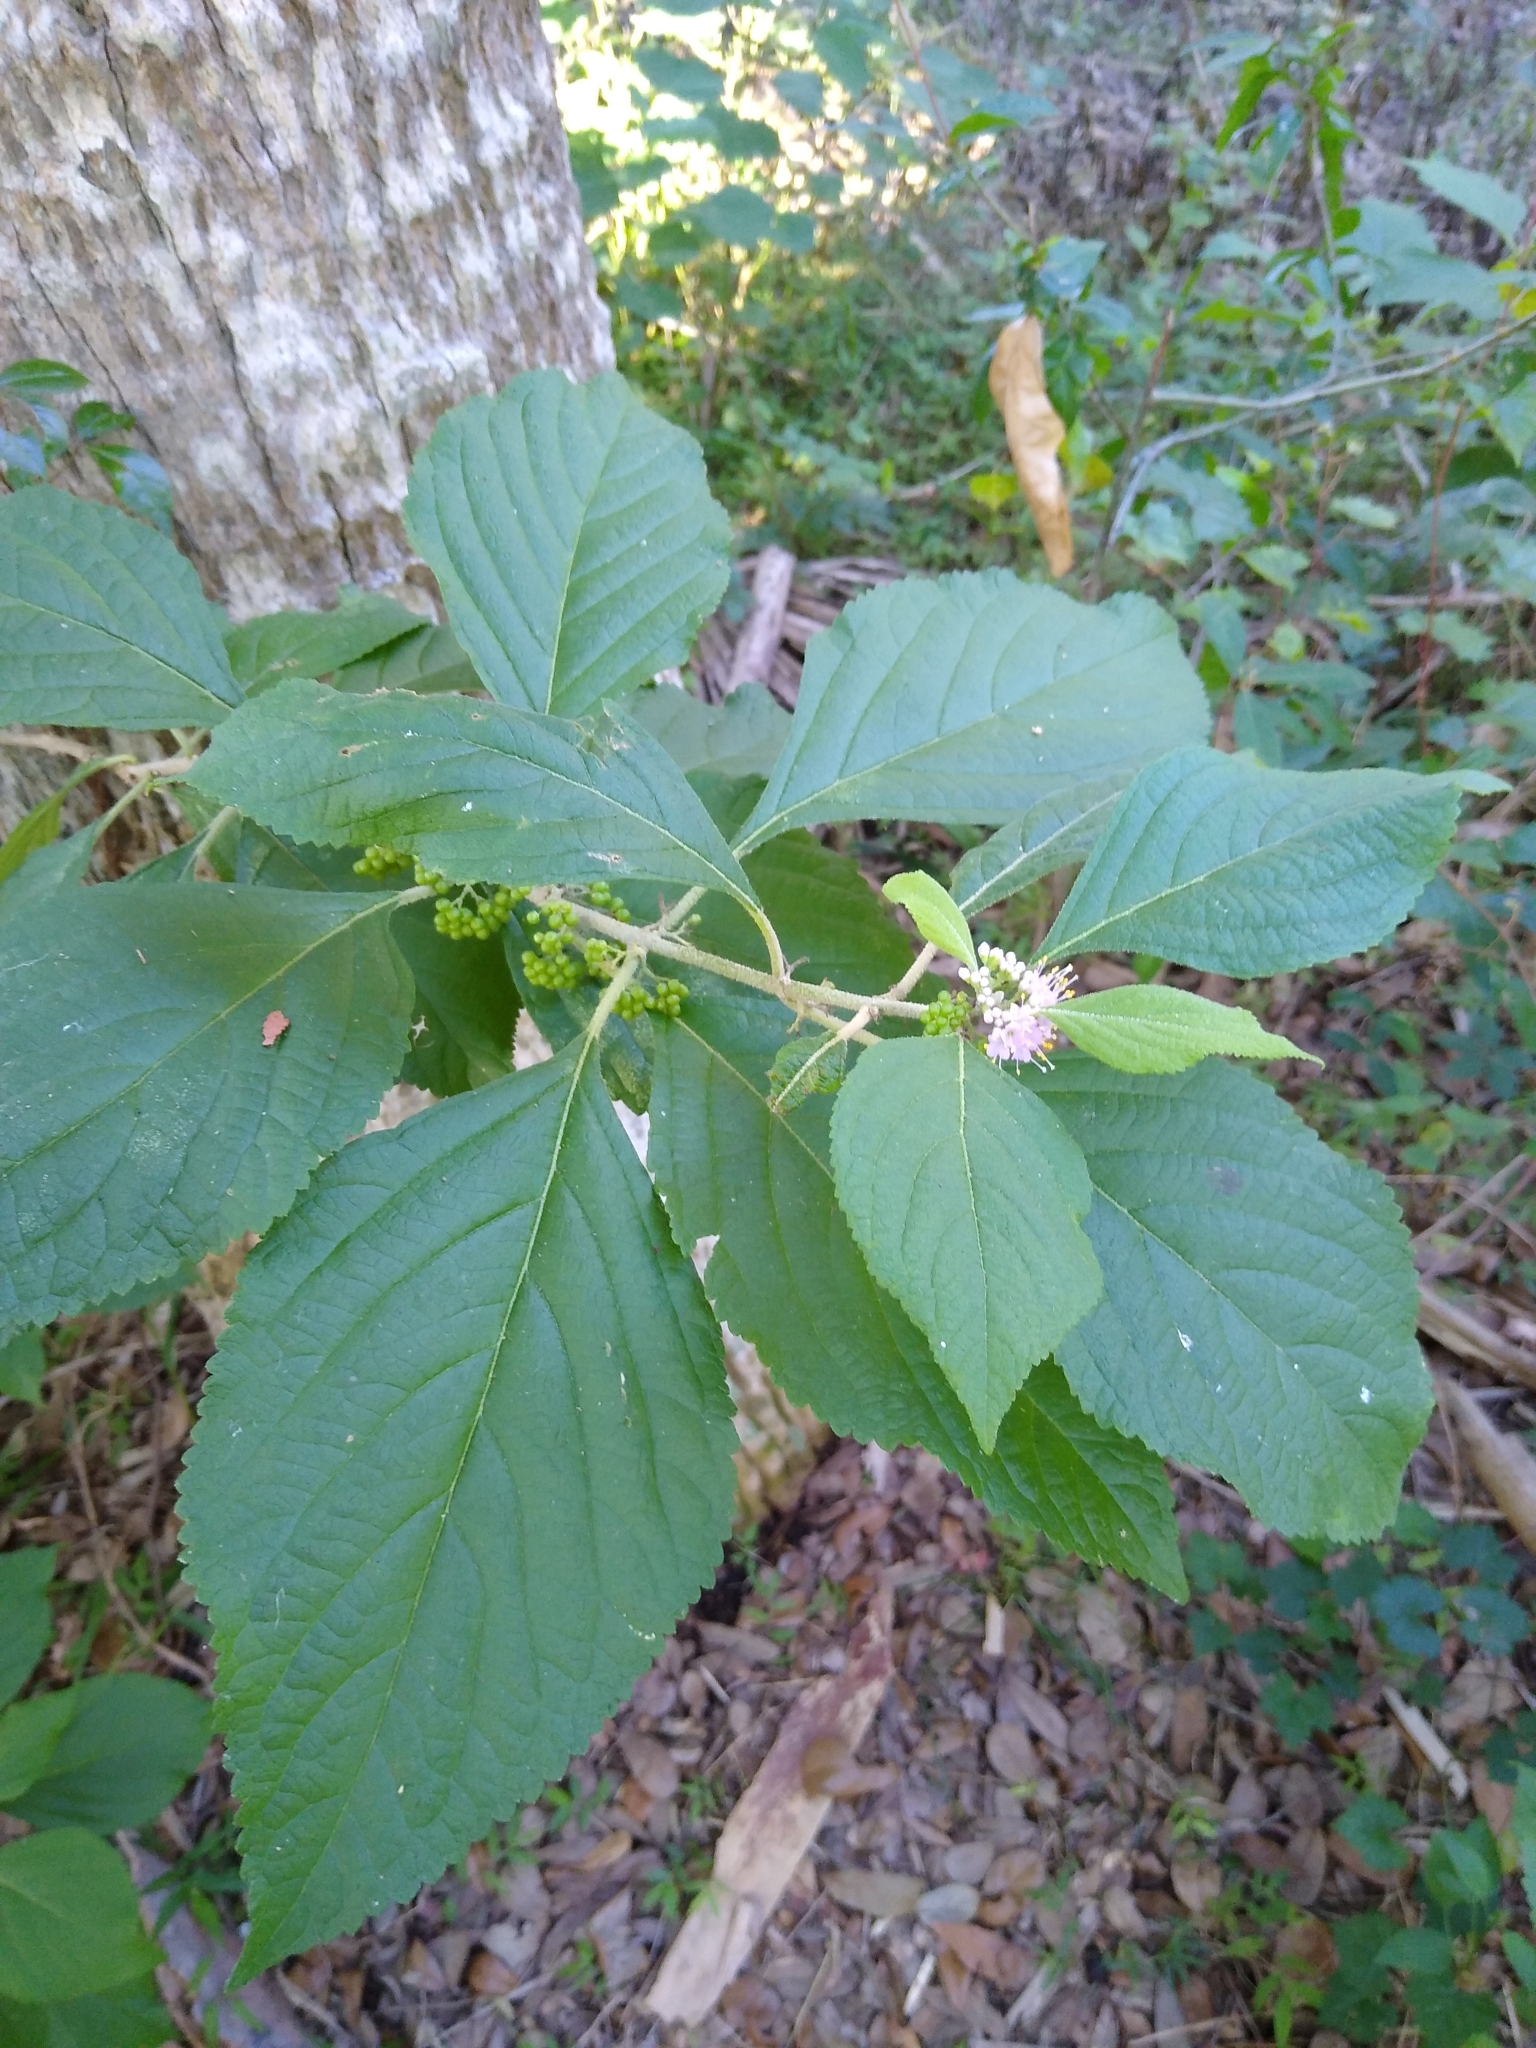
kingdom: Plantae
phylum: Tracheophyta
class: Magnoliopsida
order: Lamiales
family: Lamiaceae
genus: Callicarpa
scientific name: Callicarpa americana
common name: American beautyberry
